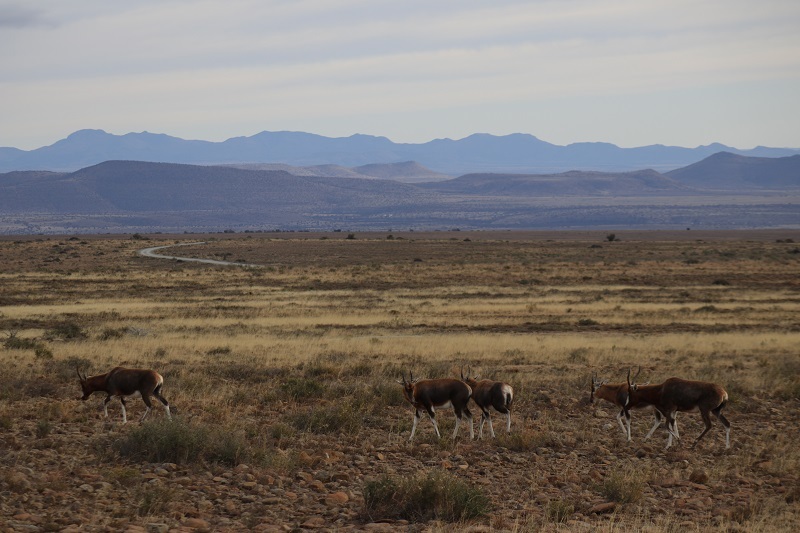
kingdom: Animalia
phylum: Chordata
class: Mammalia
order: Artiodactyla
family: Bovidae
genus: Damaliscus
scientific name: Damaliscus pygargus
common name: Bontebok
